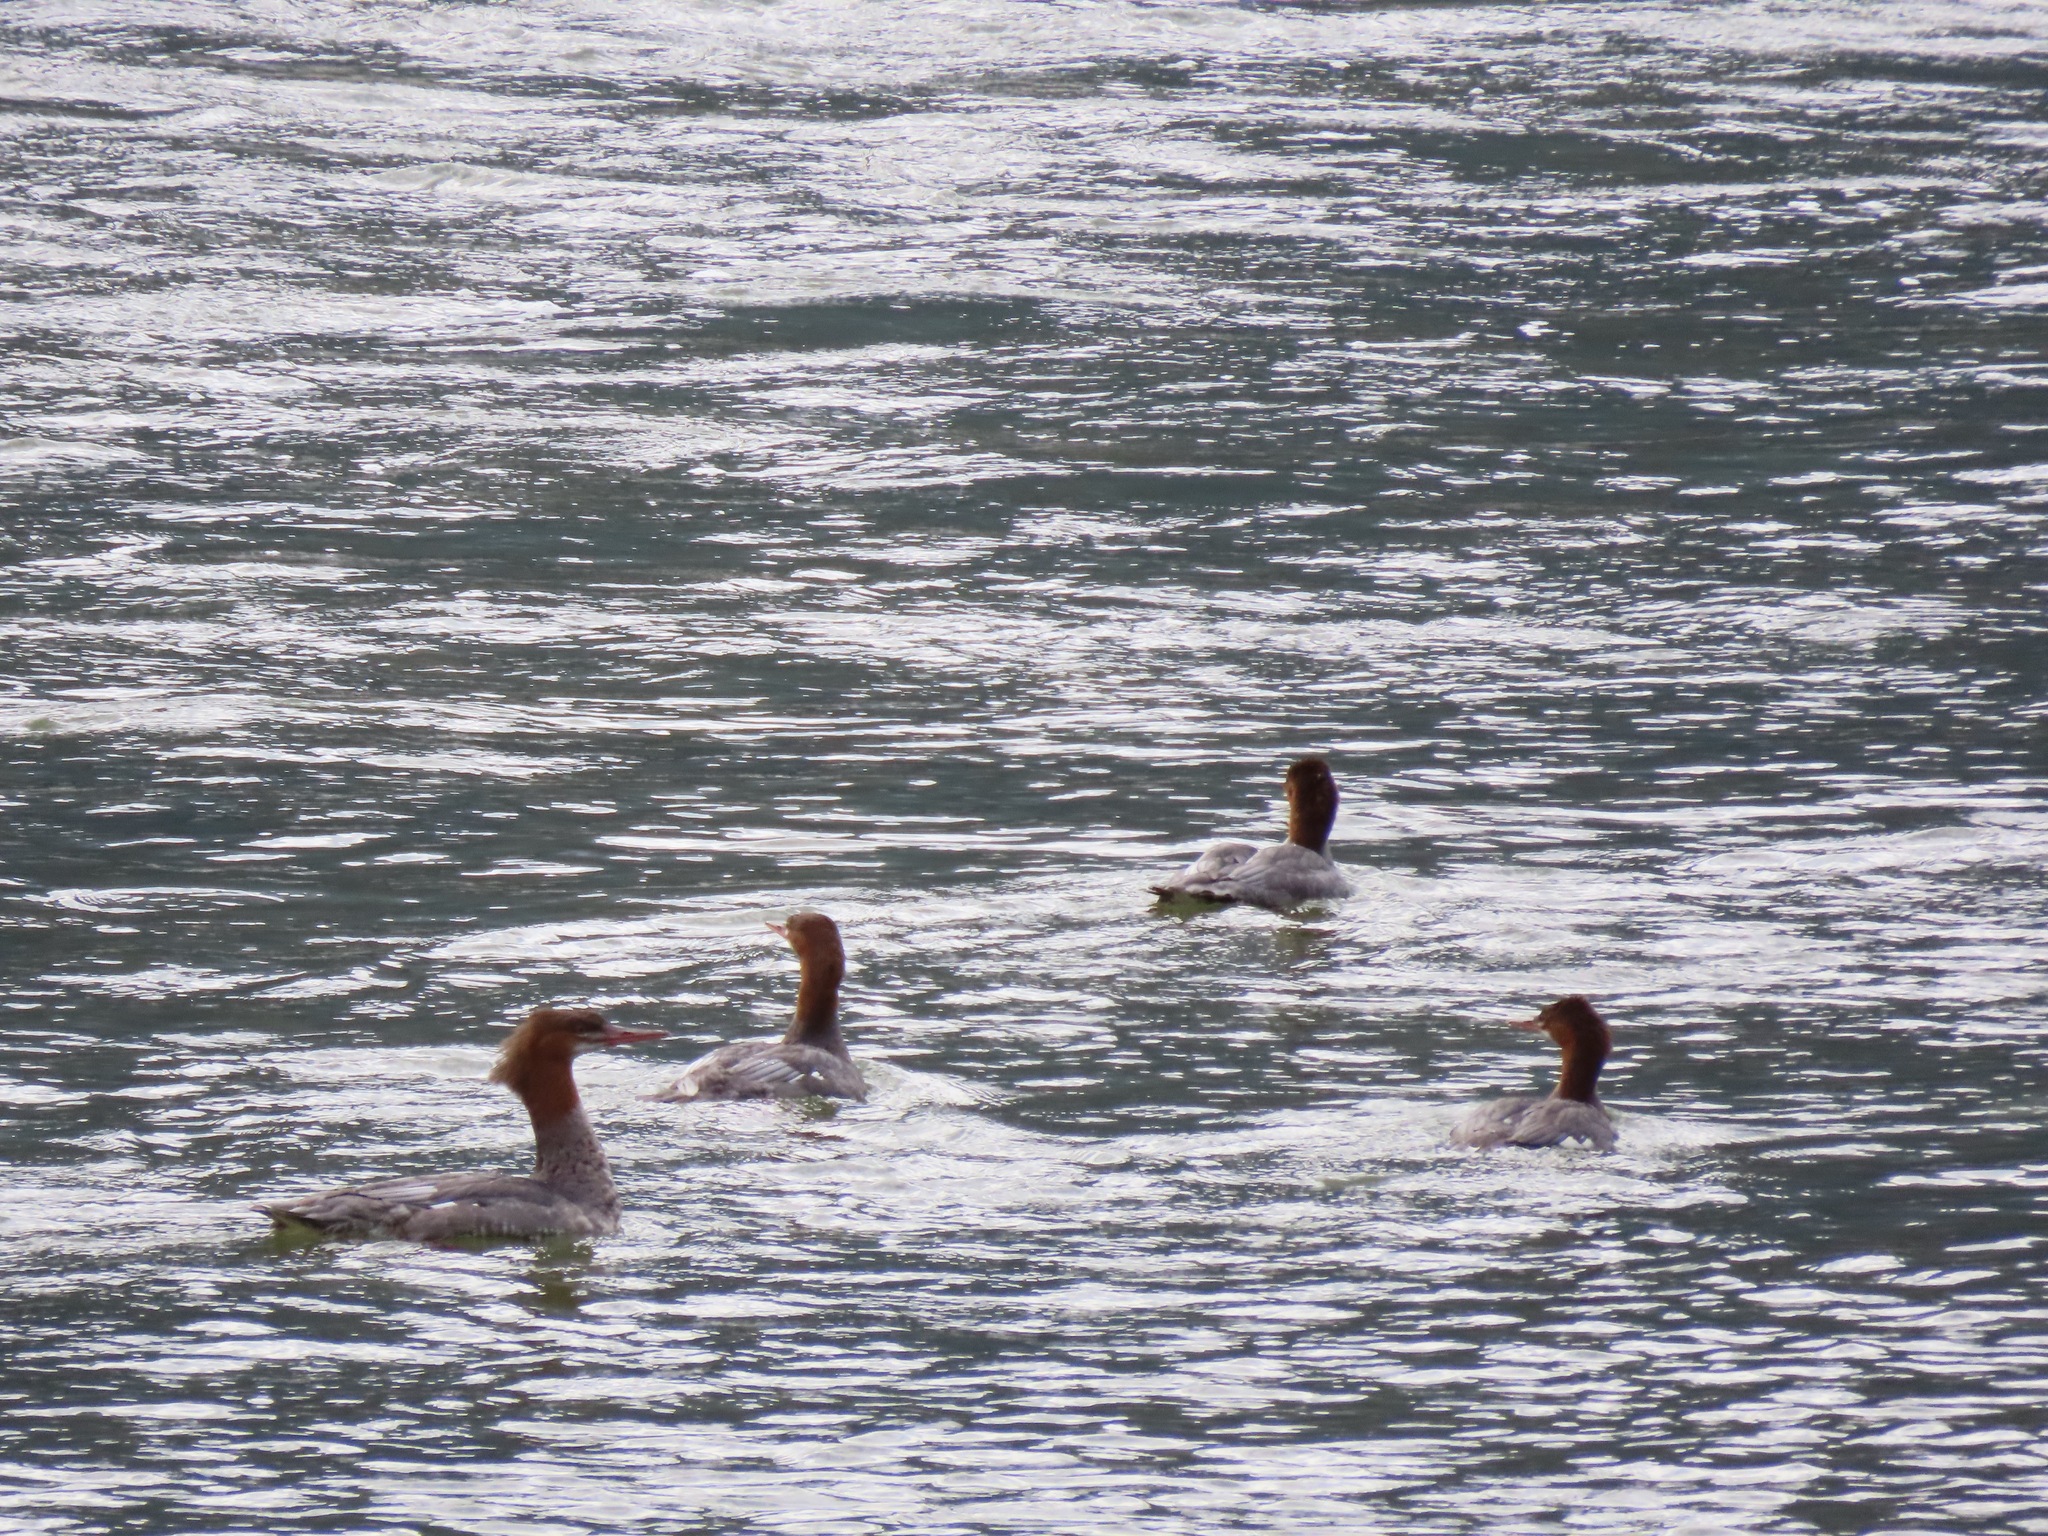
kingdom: Animalia
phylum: Chordata
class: Aves
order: Anseriformes
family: Anatidae
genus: Mergus
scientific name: Mergus merganser
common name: Common merganser
